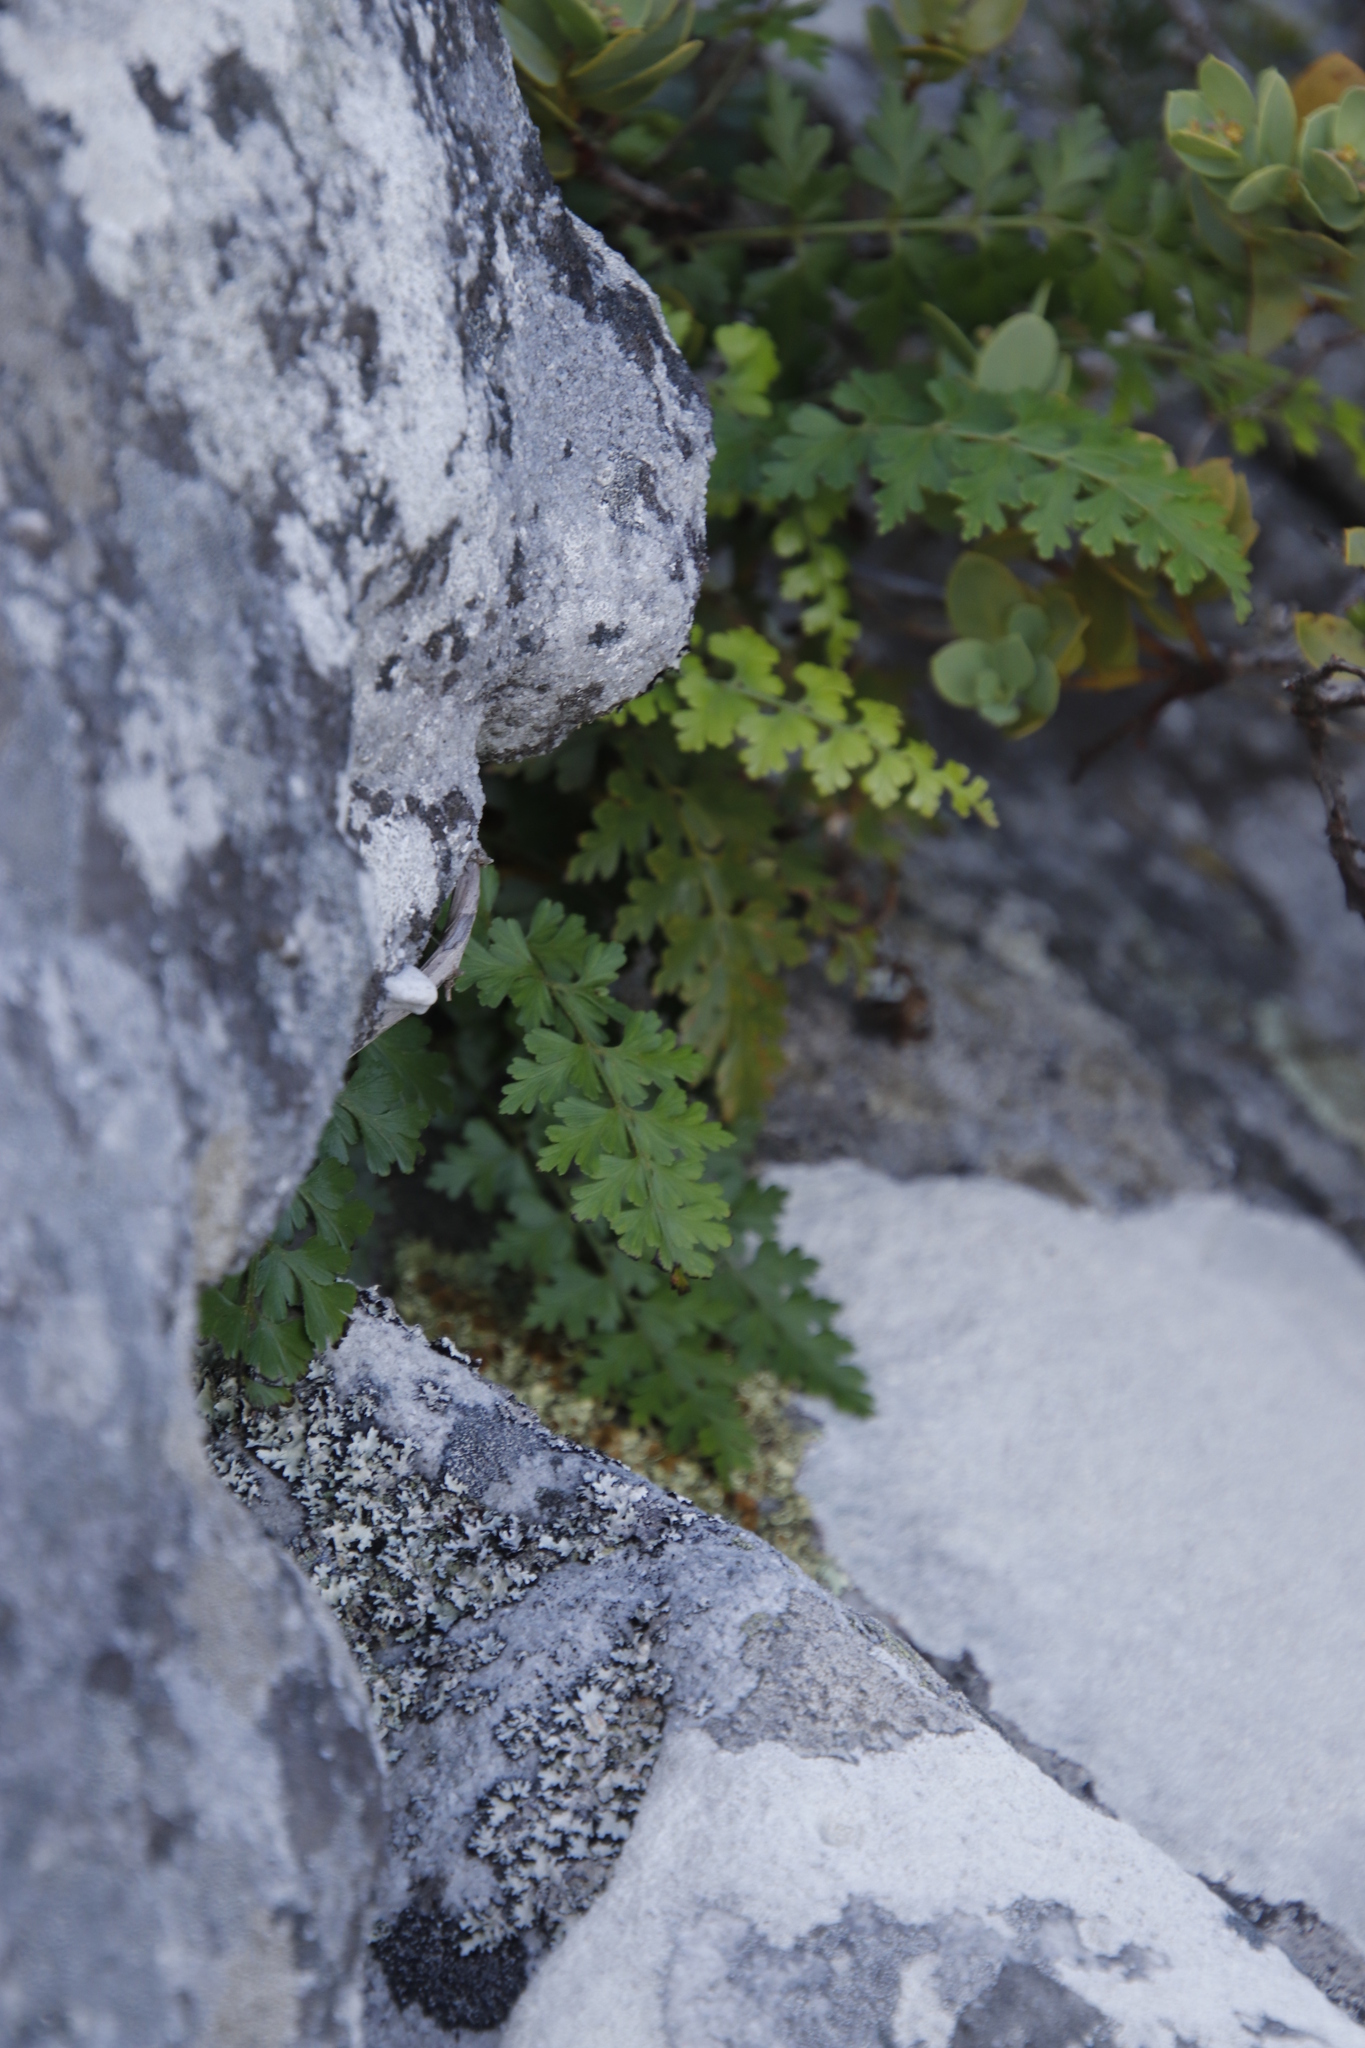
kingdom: Plantae
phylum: Tracheophyta
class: Polypodiopsida
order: Polypodiales
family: Aspleniaceae
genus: Asplenium
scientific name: Asplenium aethiopicum
